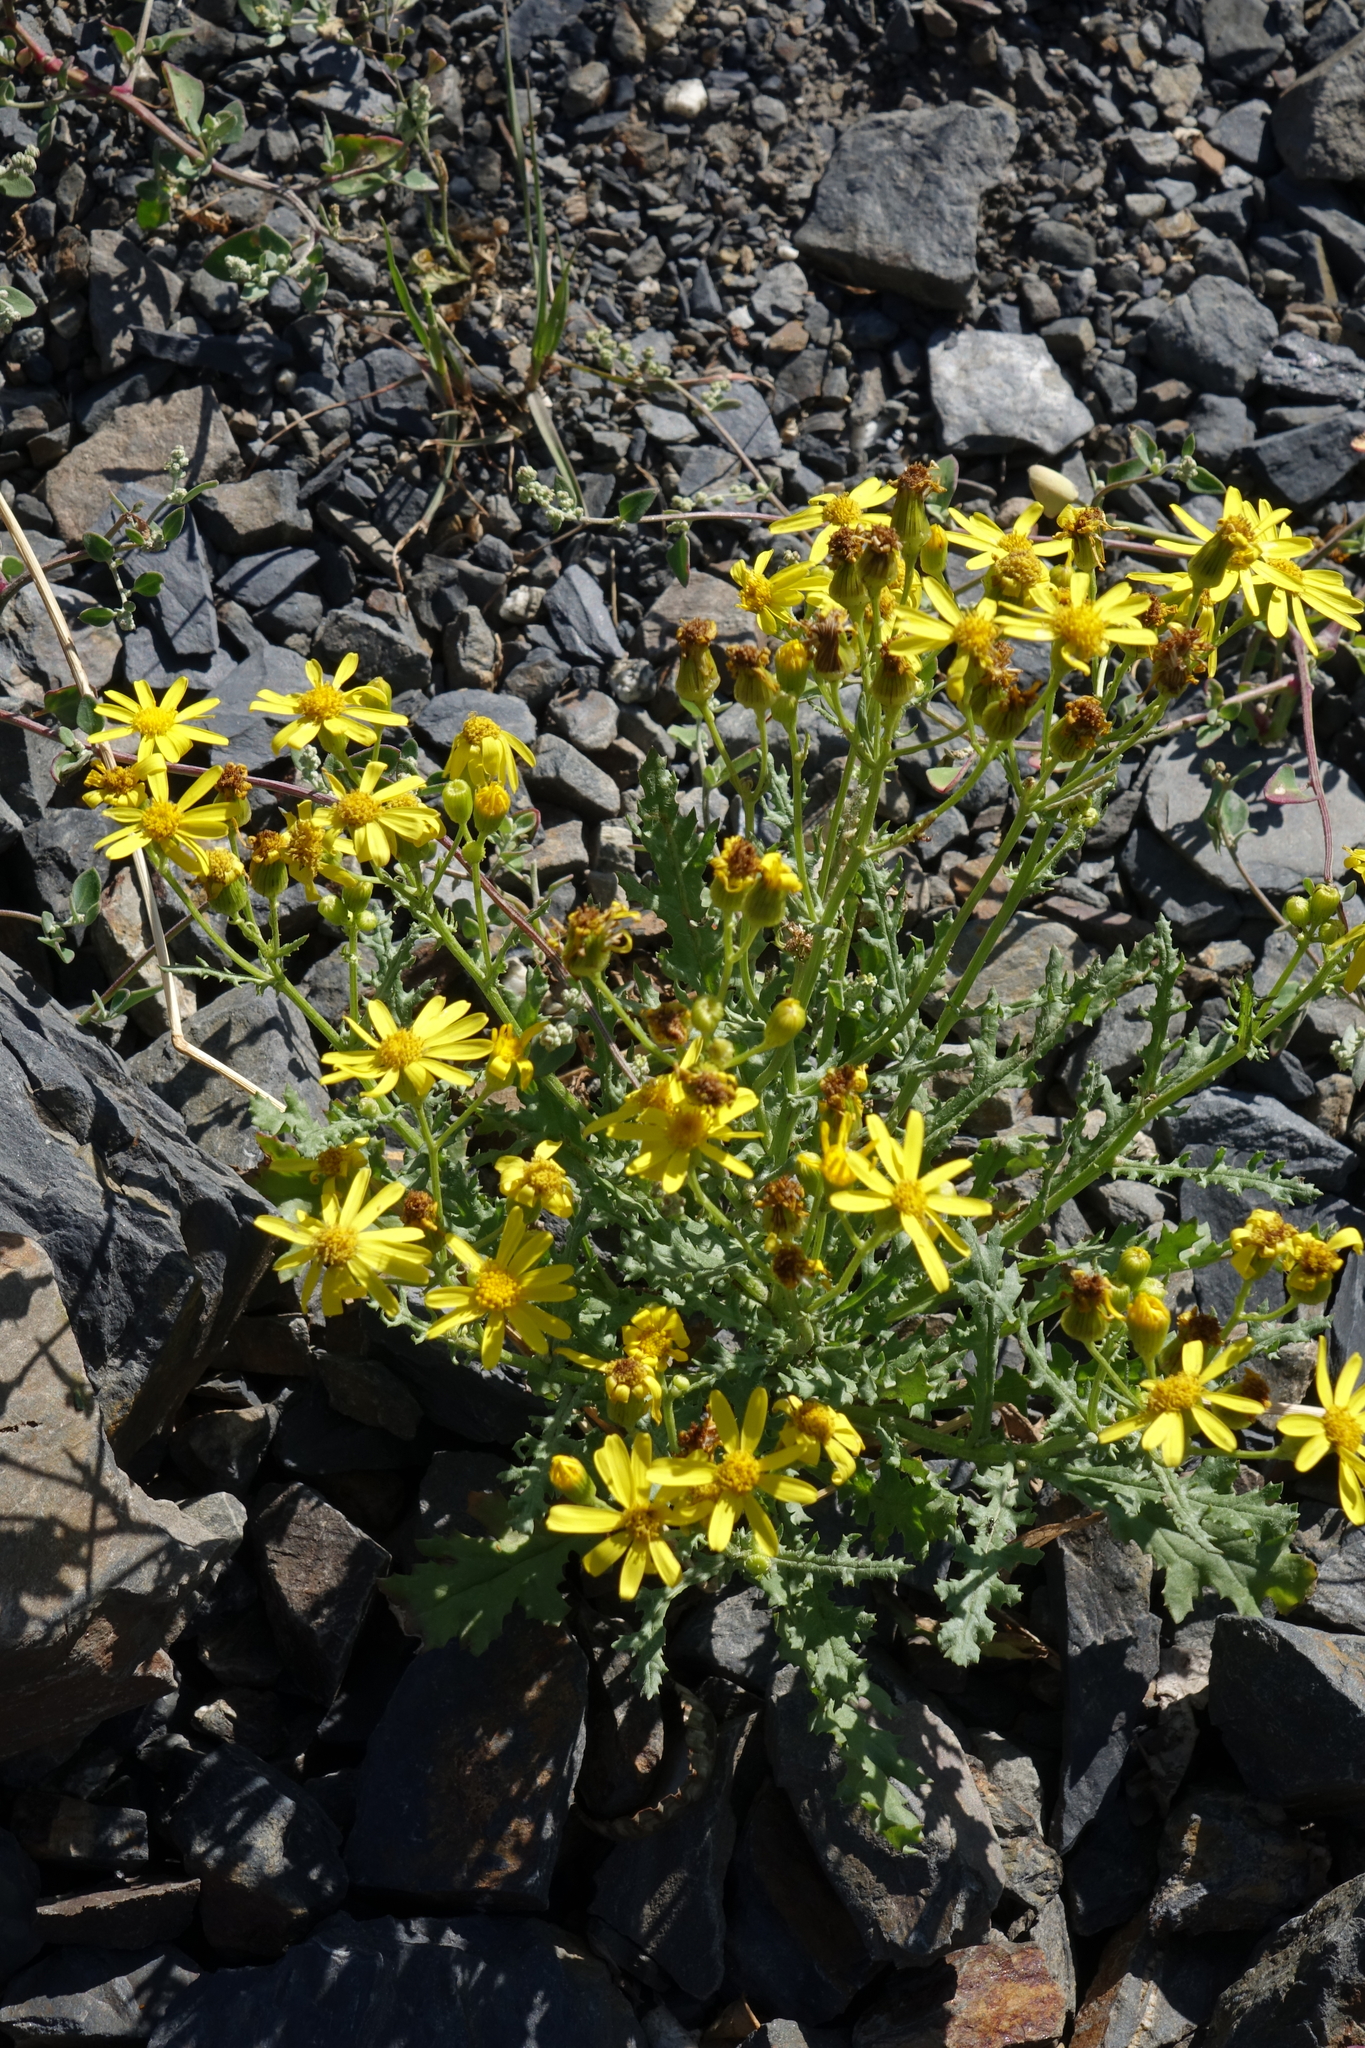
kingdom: Plantae
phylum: Tracheophyta
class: Magnoliopsida
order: Asterales
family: Asteraceae
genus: Jacobaea
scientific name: Jacobaea schischkiniana
